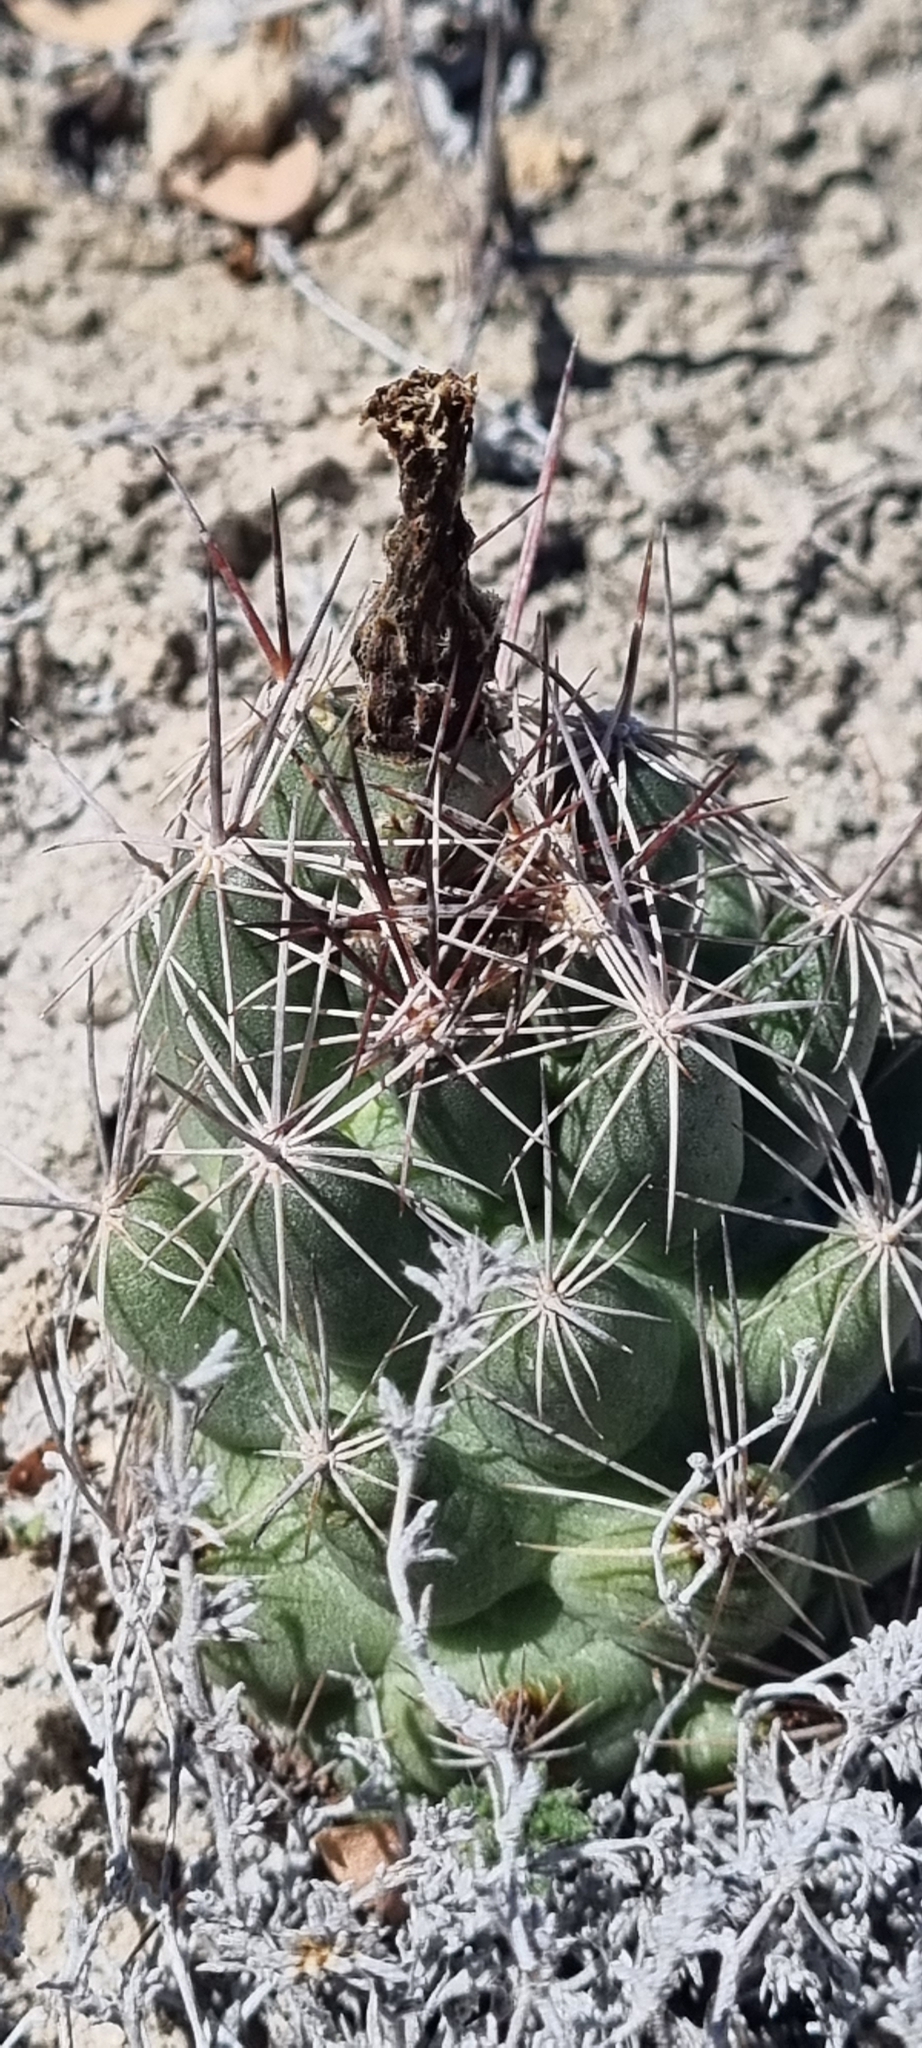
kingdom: Plantae
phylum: Tracheophyta
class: Magnoliopsida
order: Caryophyllales
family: Cactaceae
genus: Coryphantha
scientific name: Coryphantha macromeris
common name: Nipple beehive cactus
